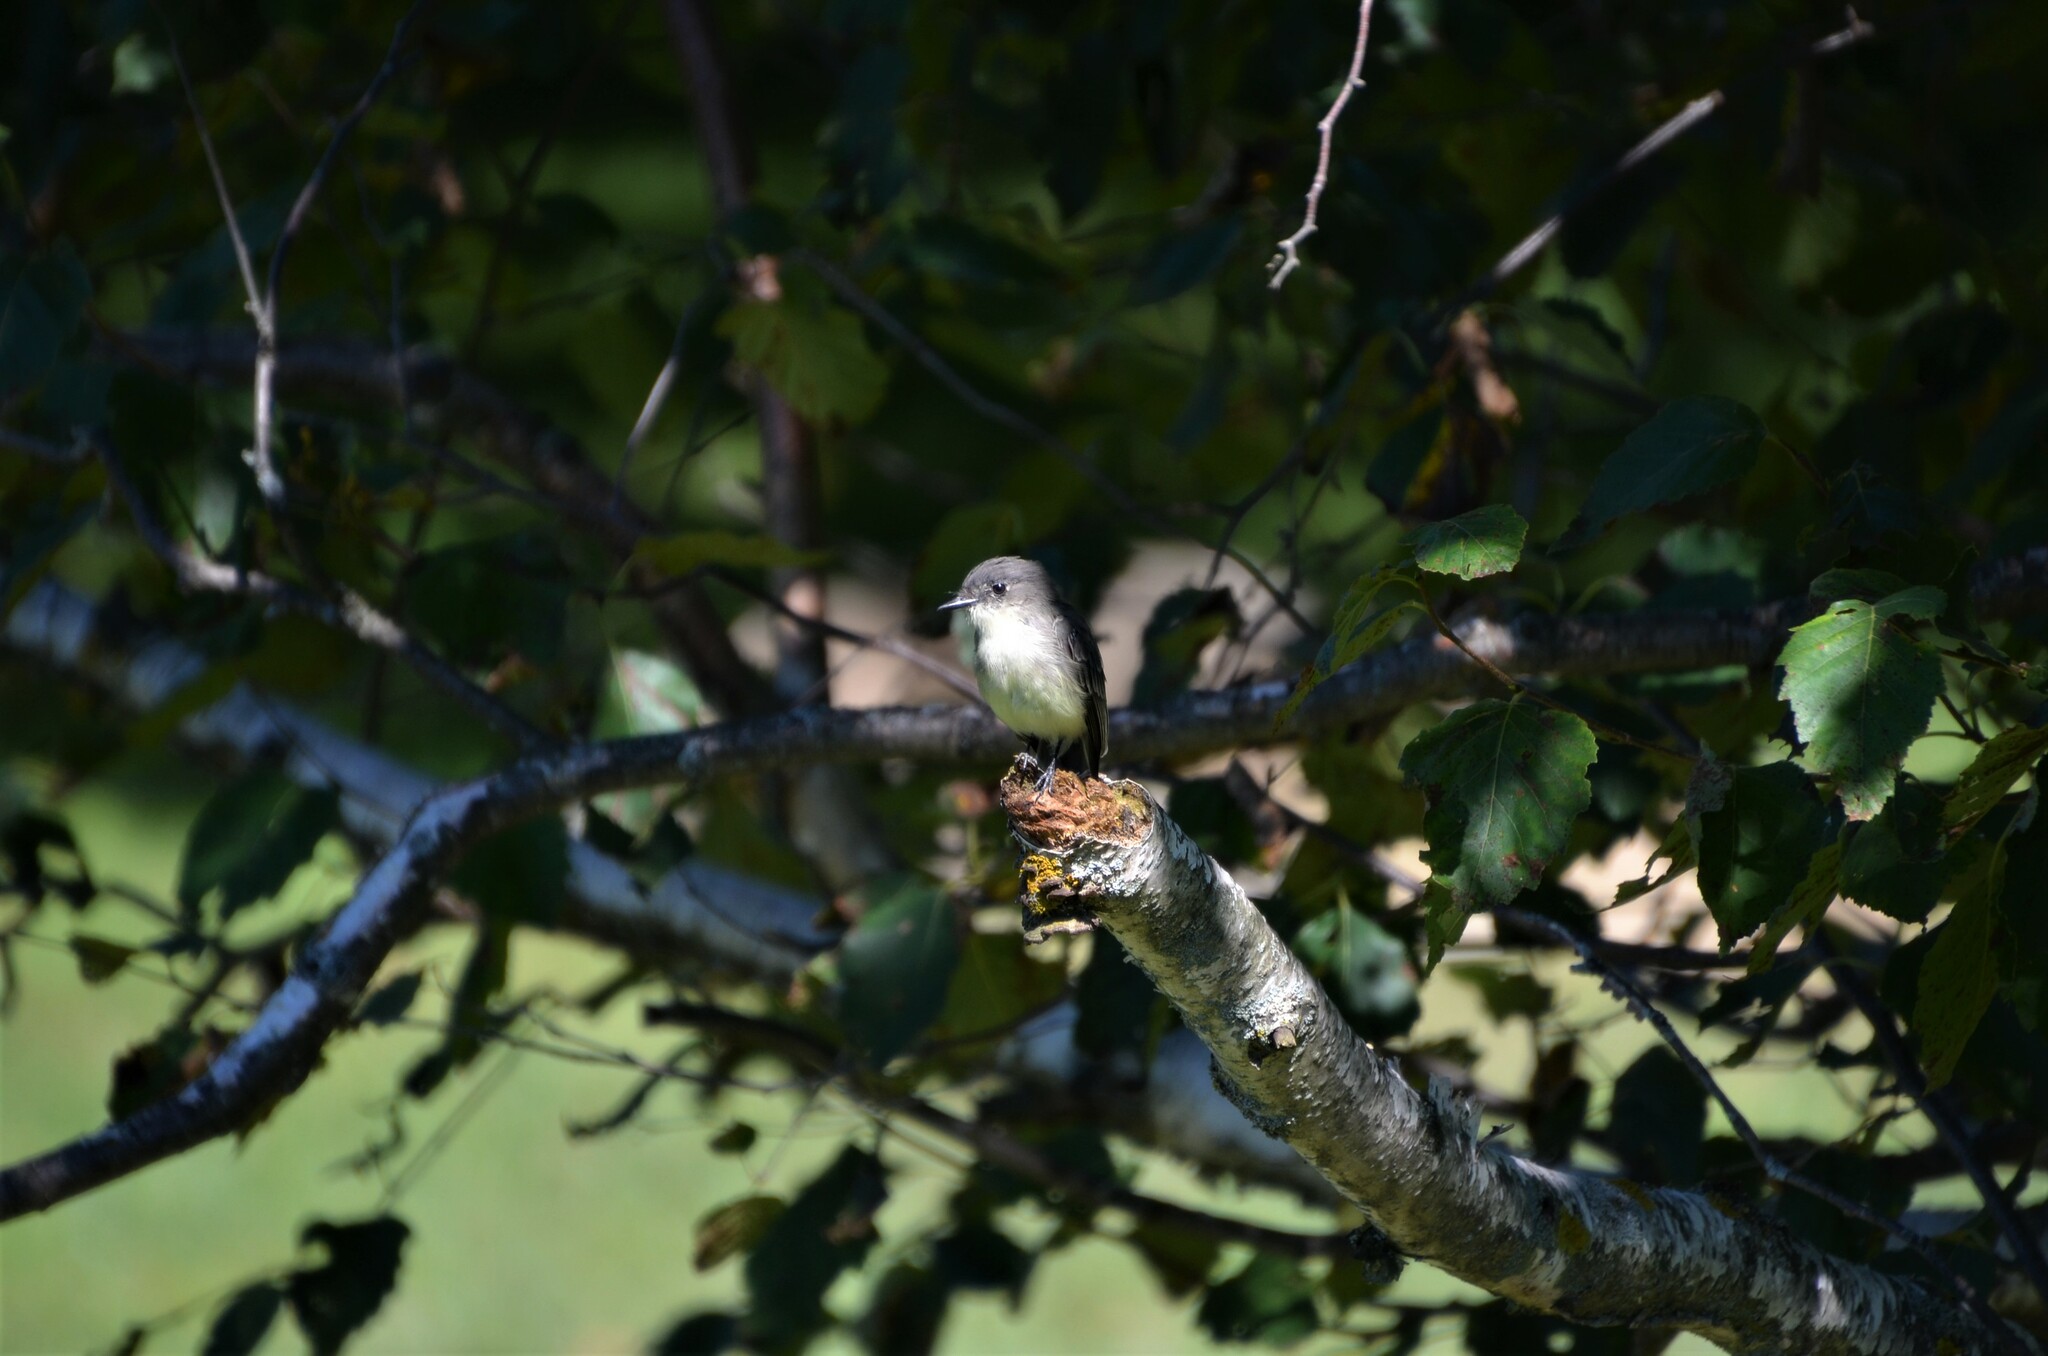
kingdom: Animalia
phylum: Chordata
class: Aves
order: Passeriformes
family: Tyrannidae
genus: Sayornis
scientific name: Sayornis phoebe
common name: Eastern phoebe
